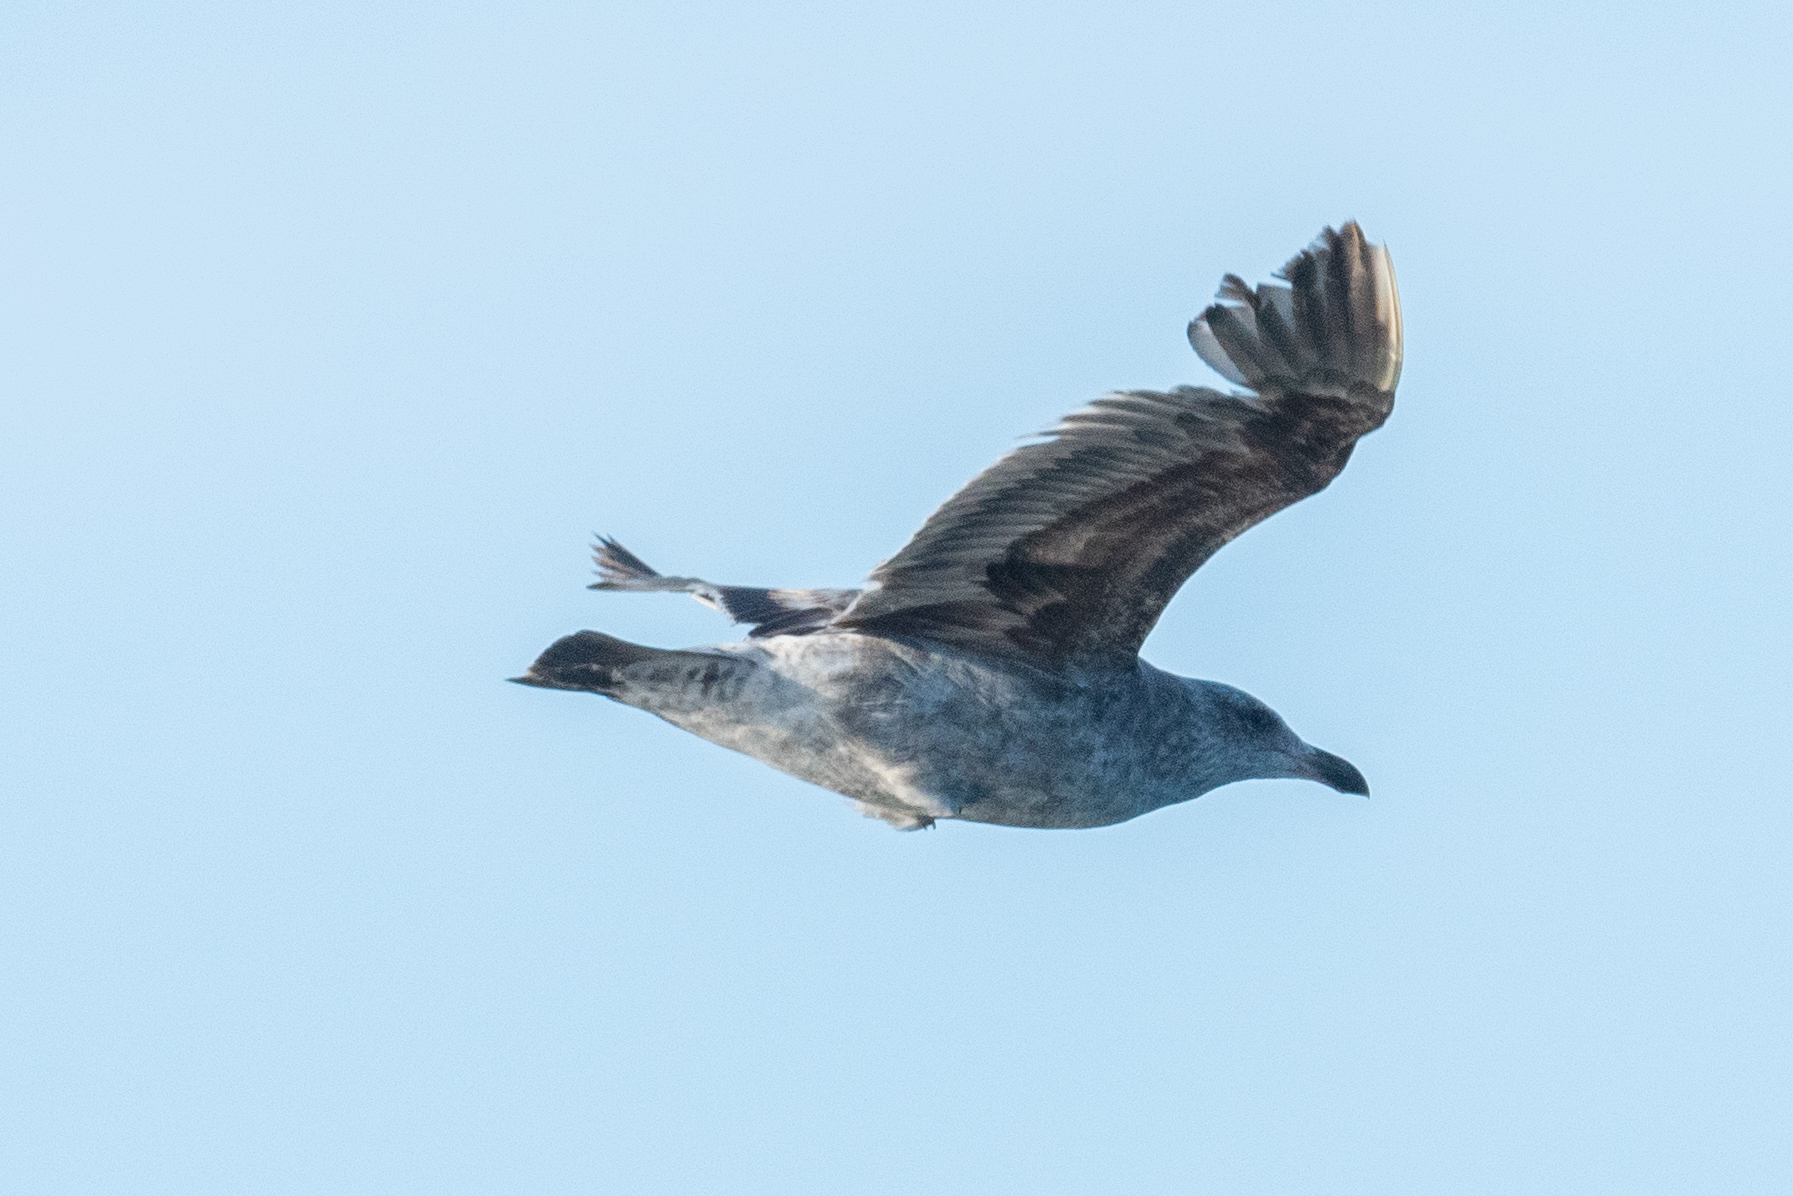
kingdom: Animalia
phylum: Chordata
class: Aves
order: Charadriiformes
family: Laridae
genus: Larus
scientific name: Larus occidentalis
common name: Western gull
